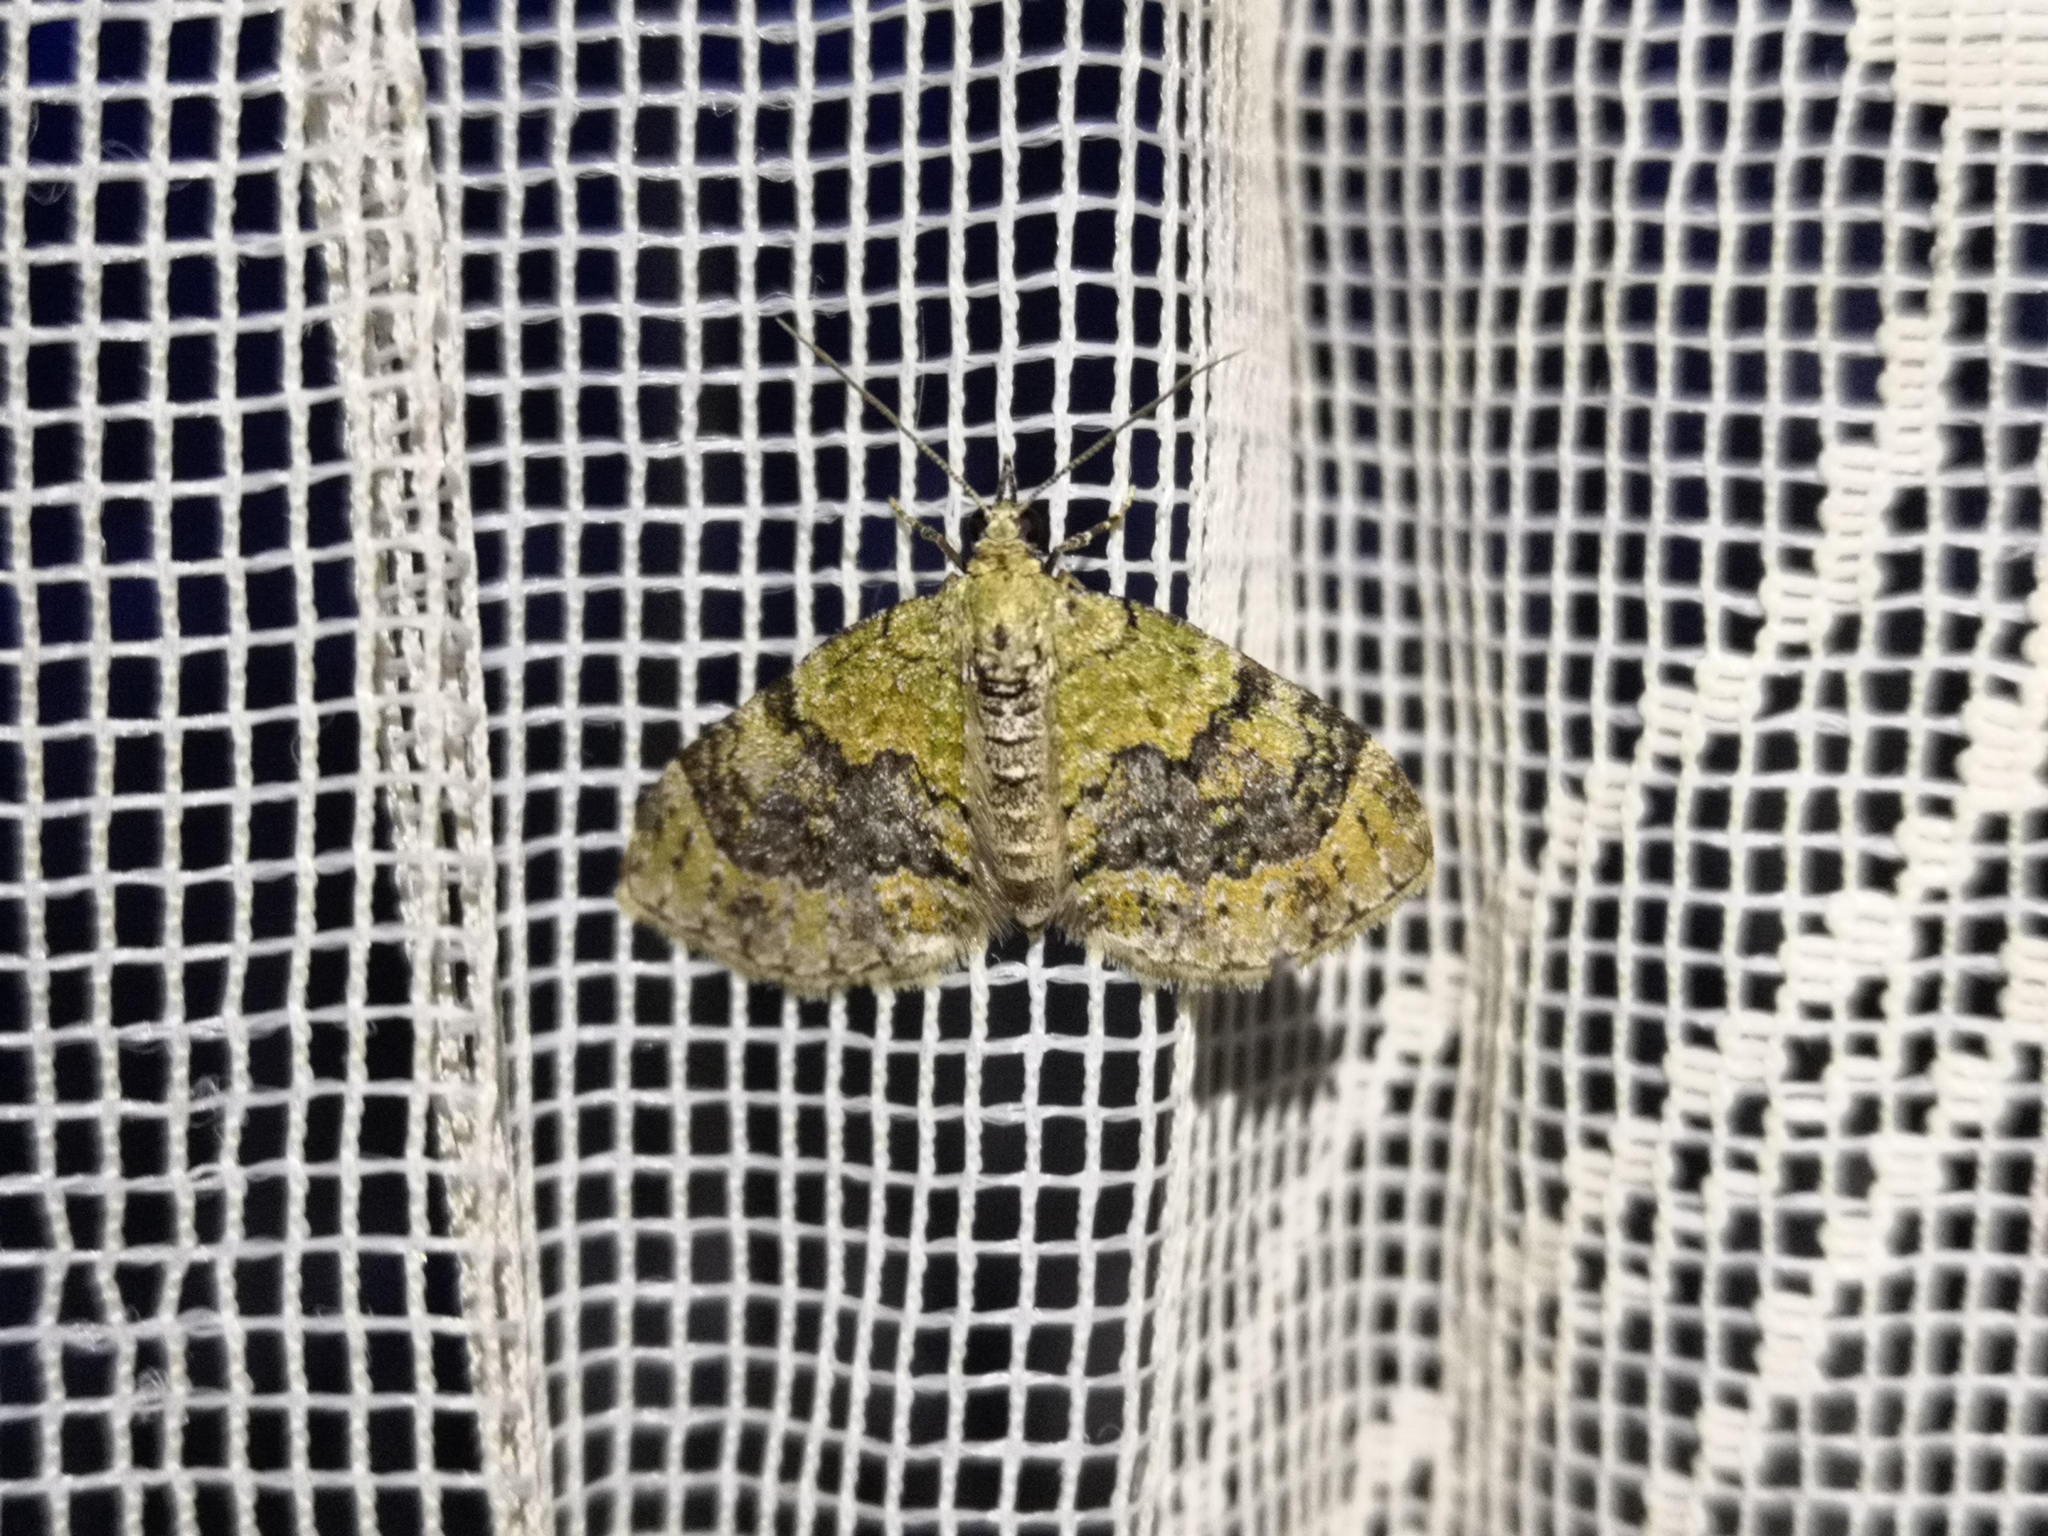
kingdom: Animalia
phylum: Arthropoda
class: Insecta
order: Lepidoptera
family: Geometridae
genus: Acasis
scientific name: Acasis viretata
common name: Yellow-barred brindle
